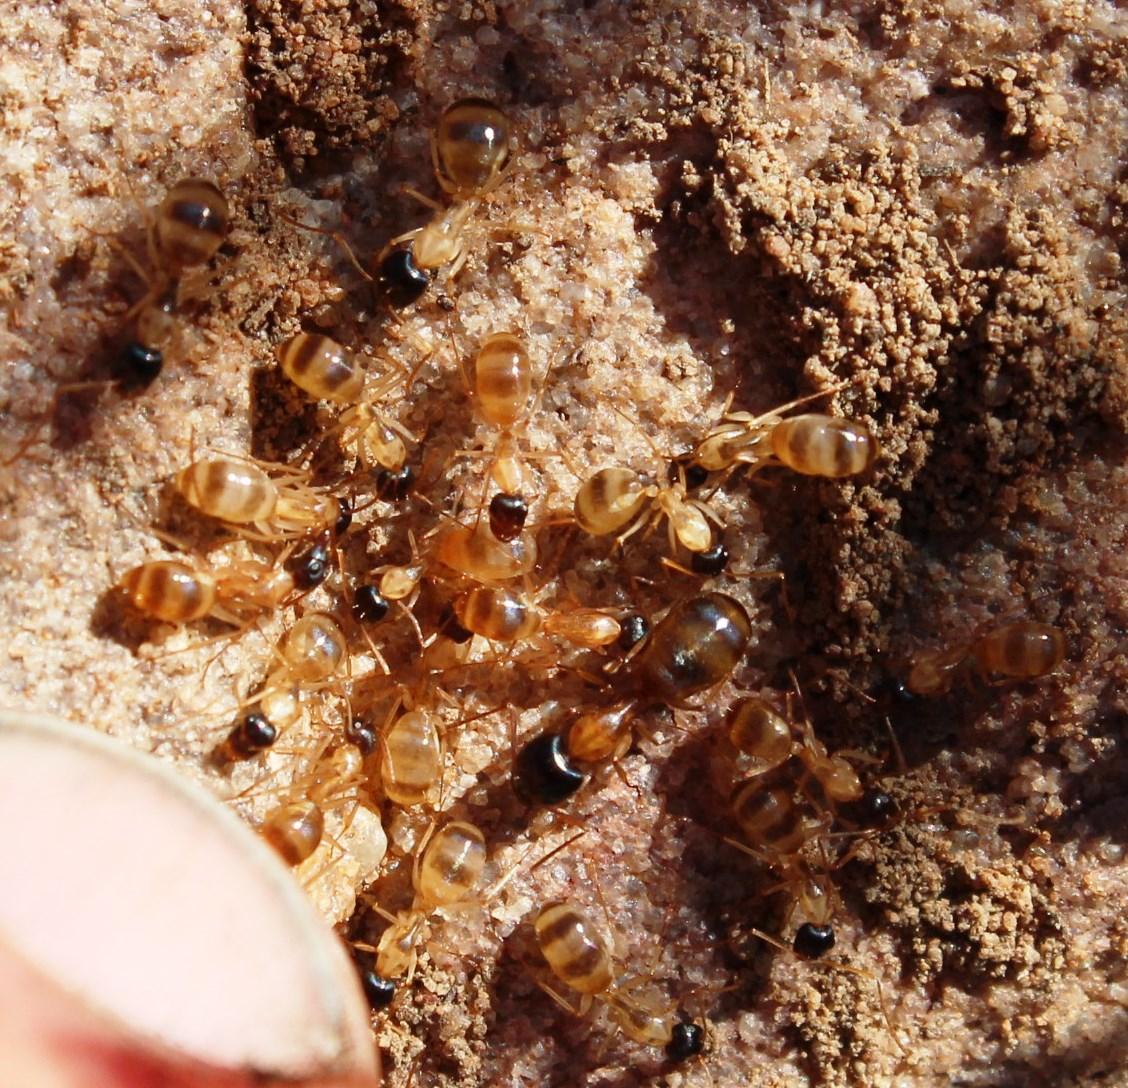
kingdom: Animalia
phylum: Arthropoda
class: Insecta
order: Hymenoptera
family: Formicidae
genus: Camponotus
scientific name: Camponotus havilandi
